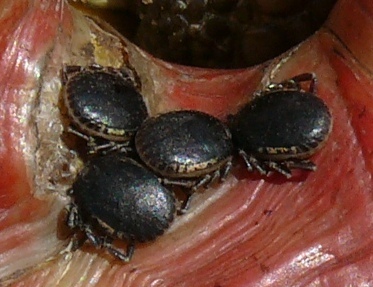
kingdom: Animalia
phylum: Arthropoda
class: Arachnida
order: Ixodida
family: Ixodidae
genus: Amblyomma
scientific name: Amblyomma sylvaticum
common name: Cape tortoise tick
